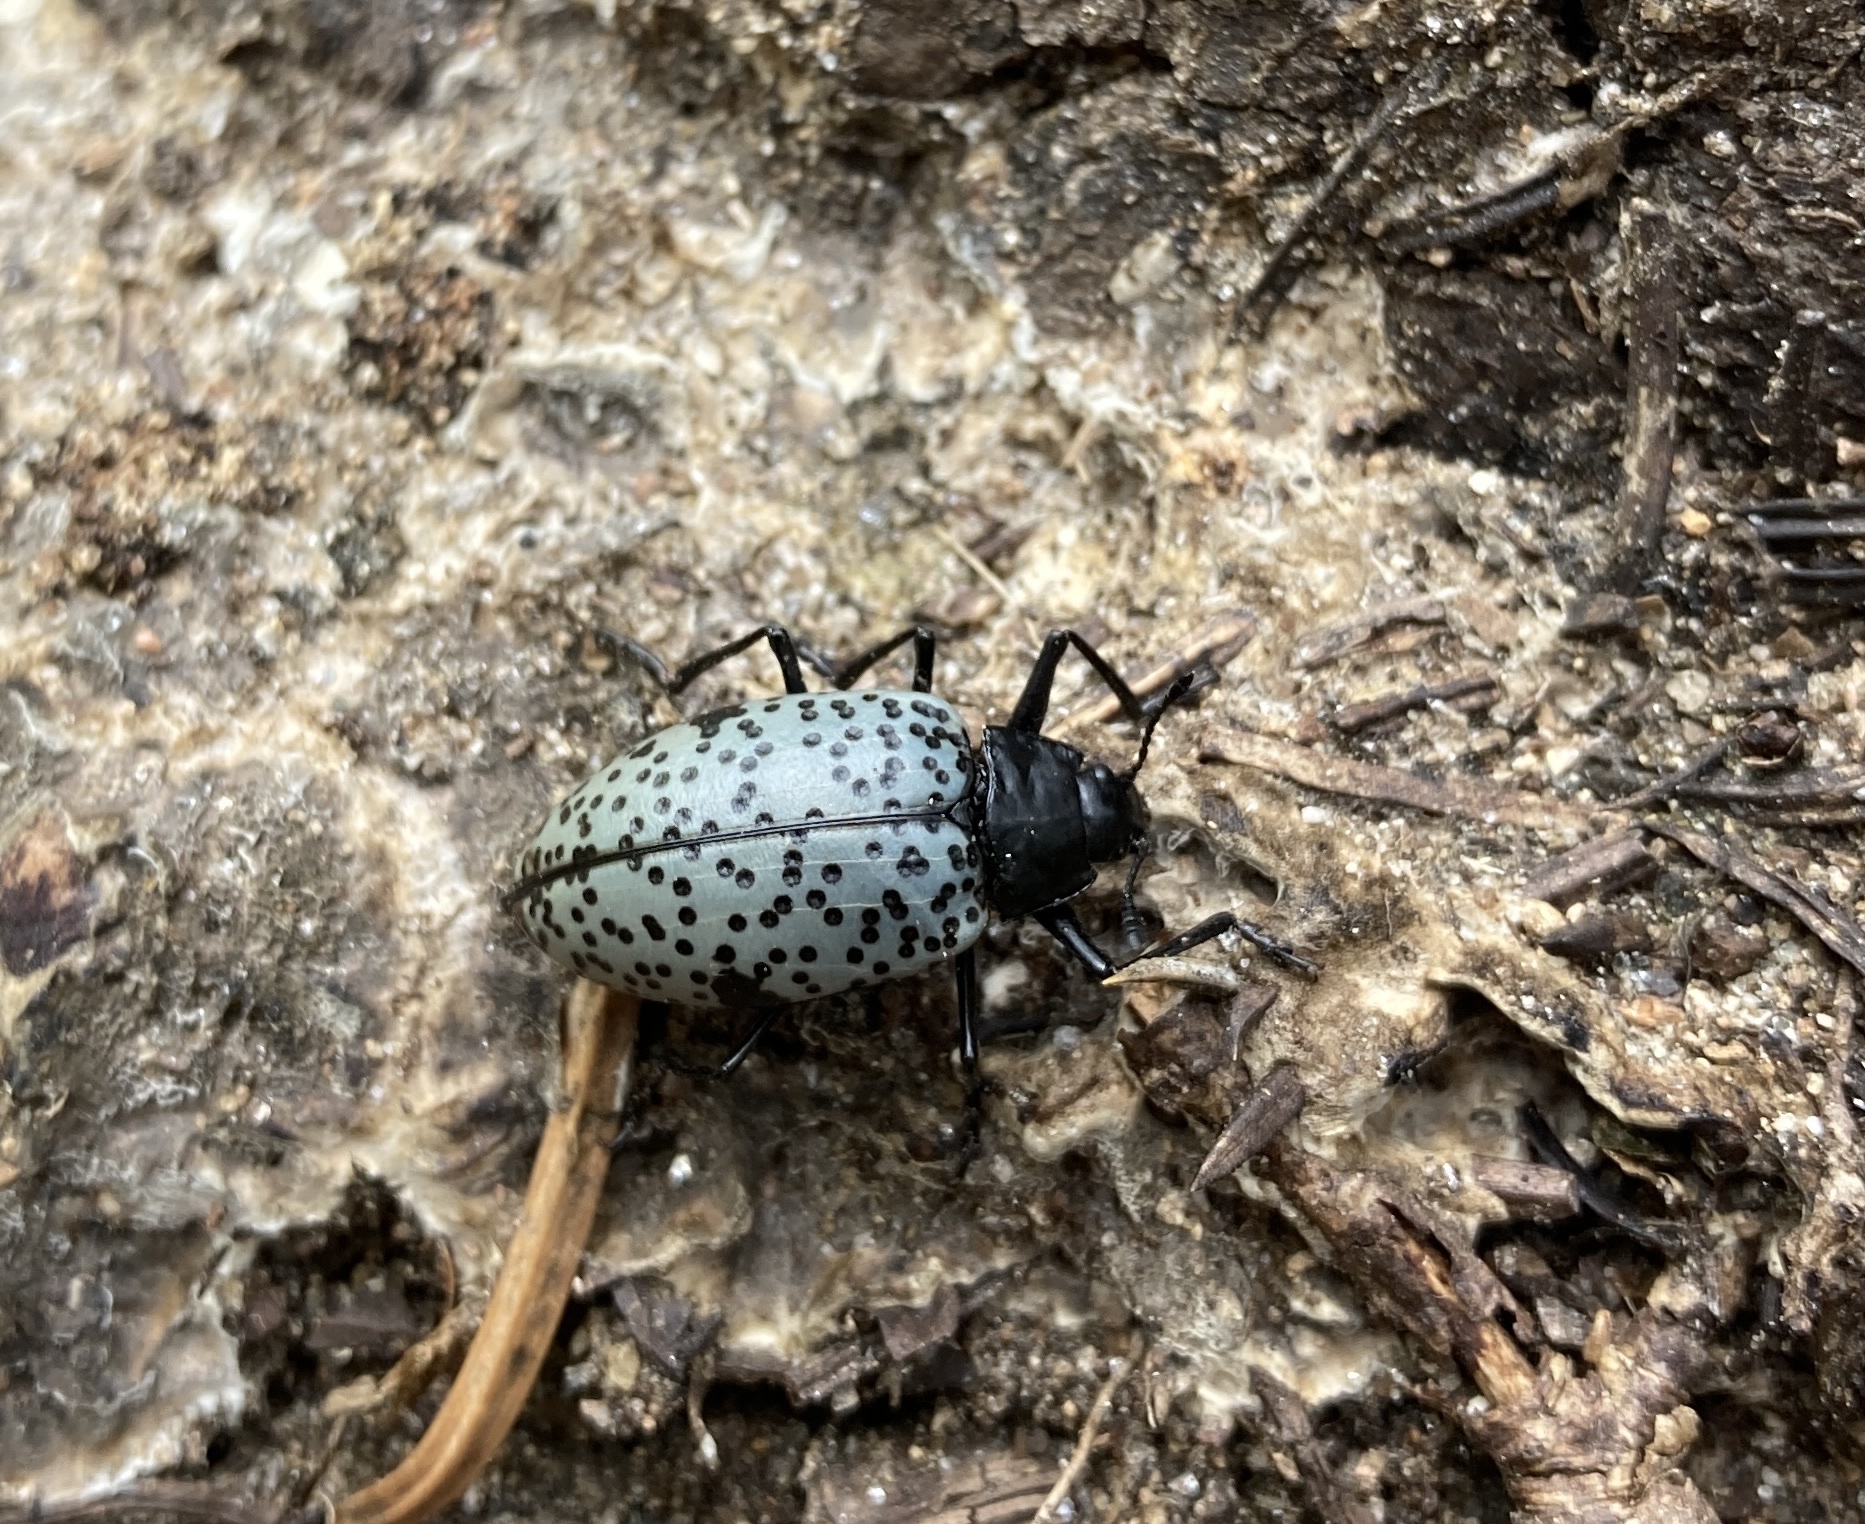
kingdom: Animalia
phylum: Arthropoda
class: Insecta
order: Coleoptera
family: Erotylidae
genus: Gibbifer
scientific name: Gibbifer californicus
